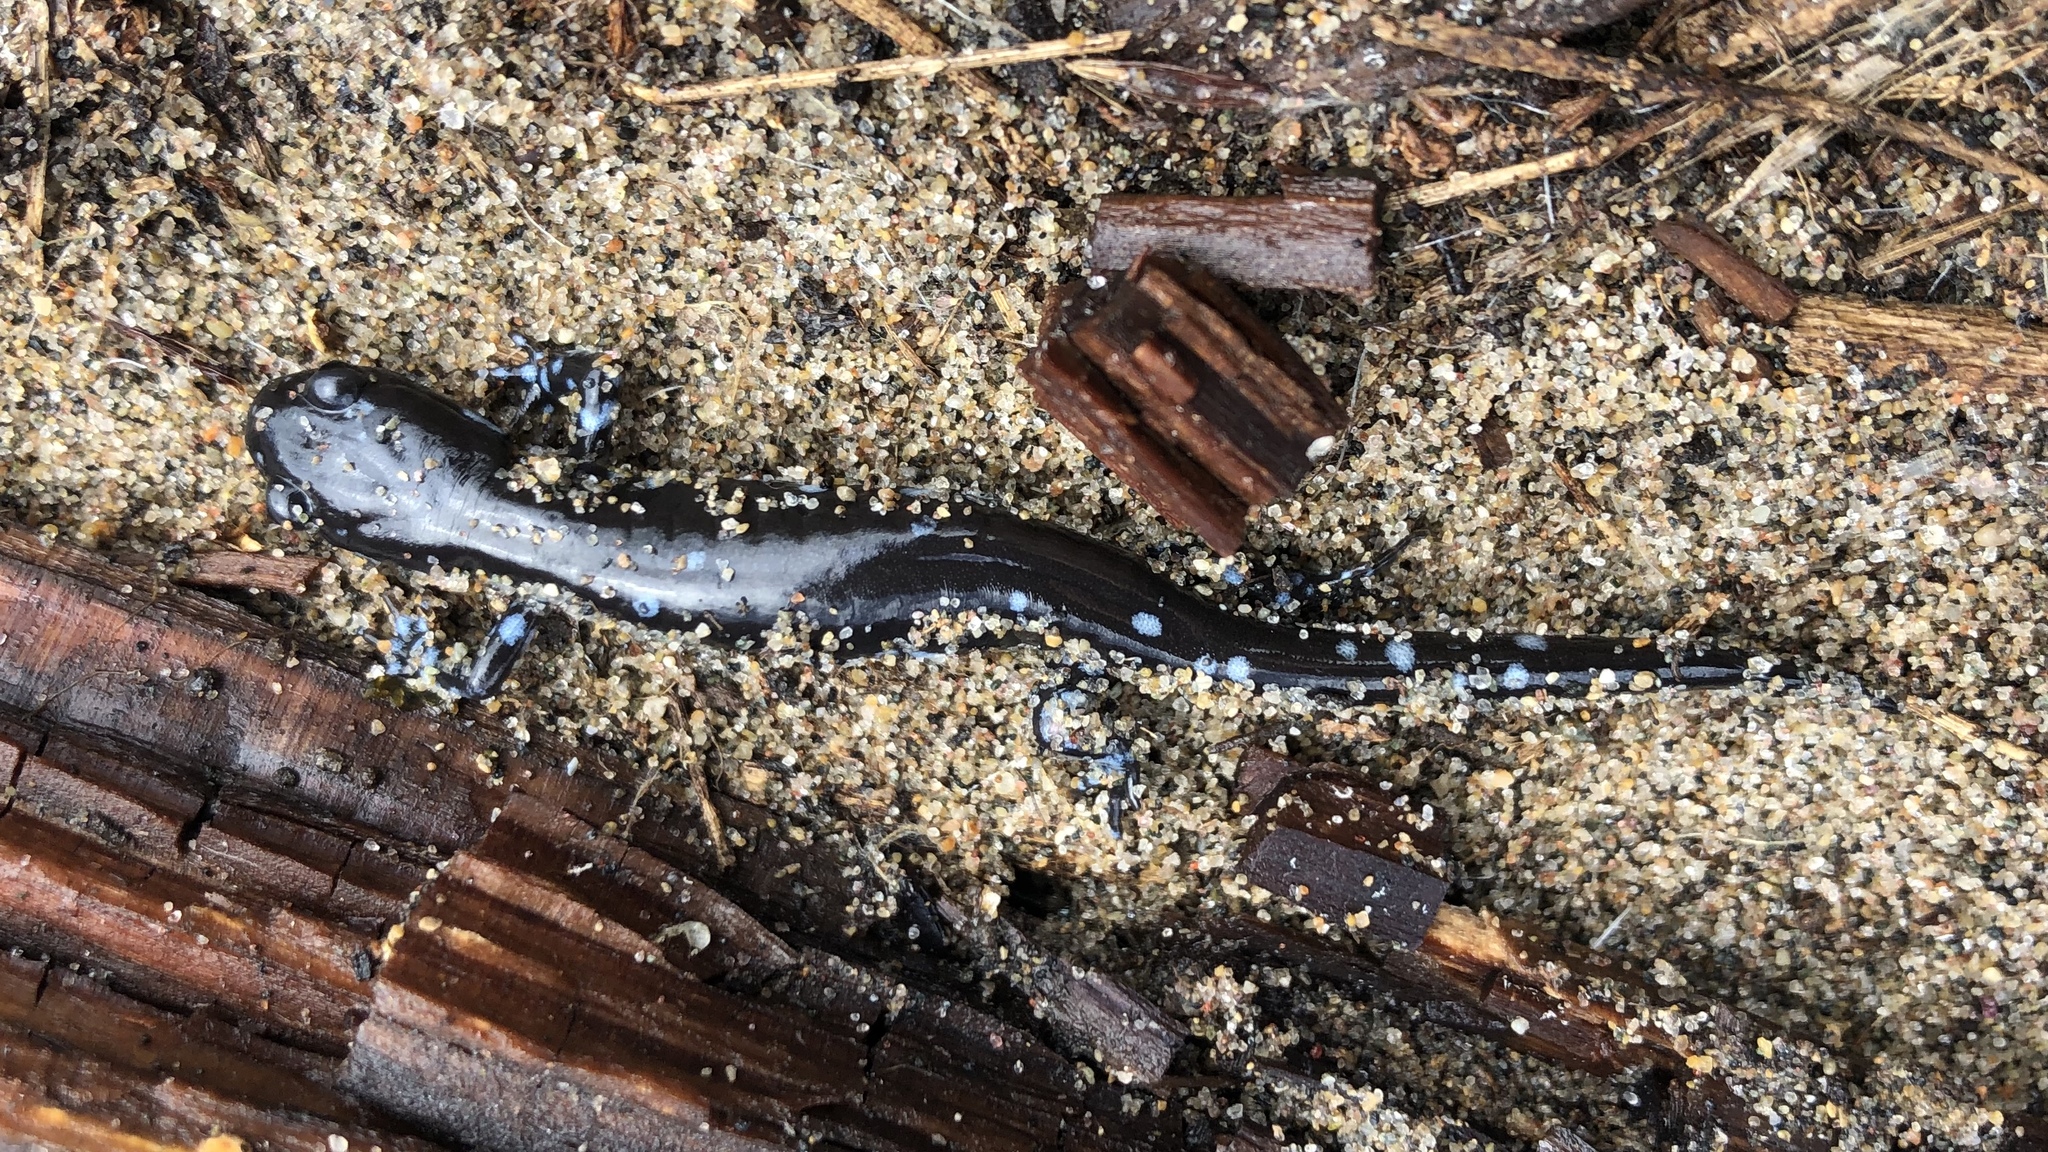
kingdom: Animalia
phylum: Chordata
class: Amphibia
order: Caudata
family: Ambystomatidae
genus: Ambystoma
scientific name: Ambystoma laterale
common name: Blue-spotted salamander
